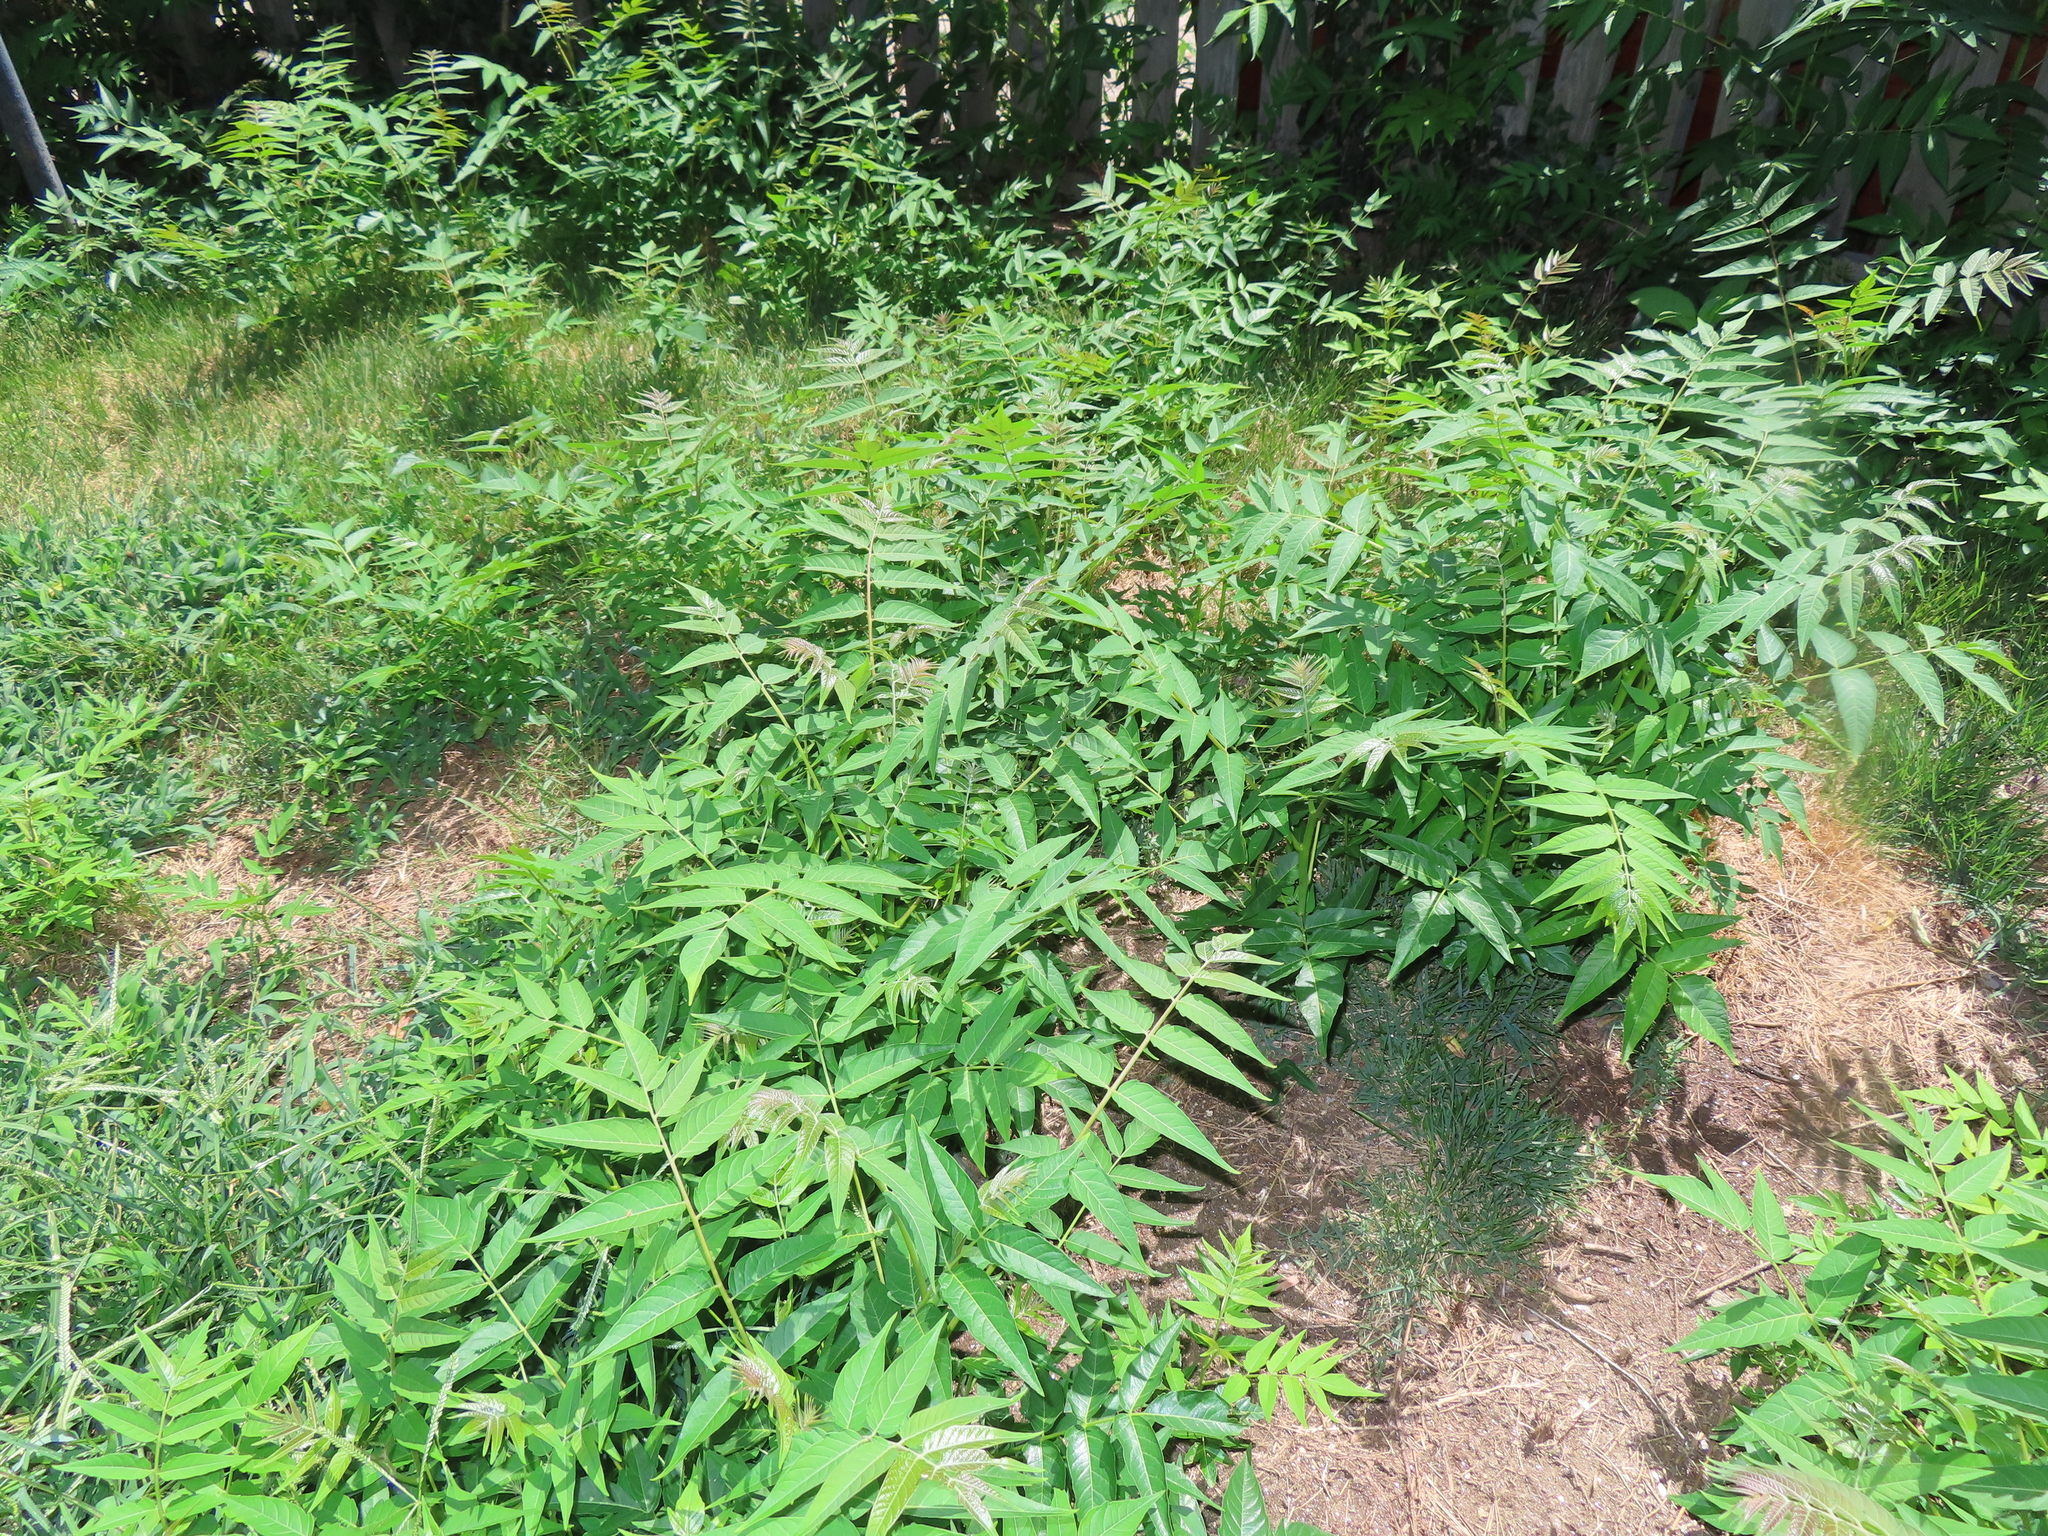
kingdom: Plantae
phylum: Tracheophyta
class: Magnoliopsida
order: Sapindales
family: Simaroubaceae
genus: Ailanthus
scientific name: Ailanthus altissima
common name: Tree-of-heaven
